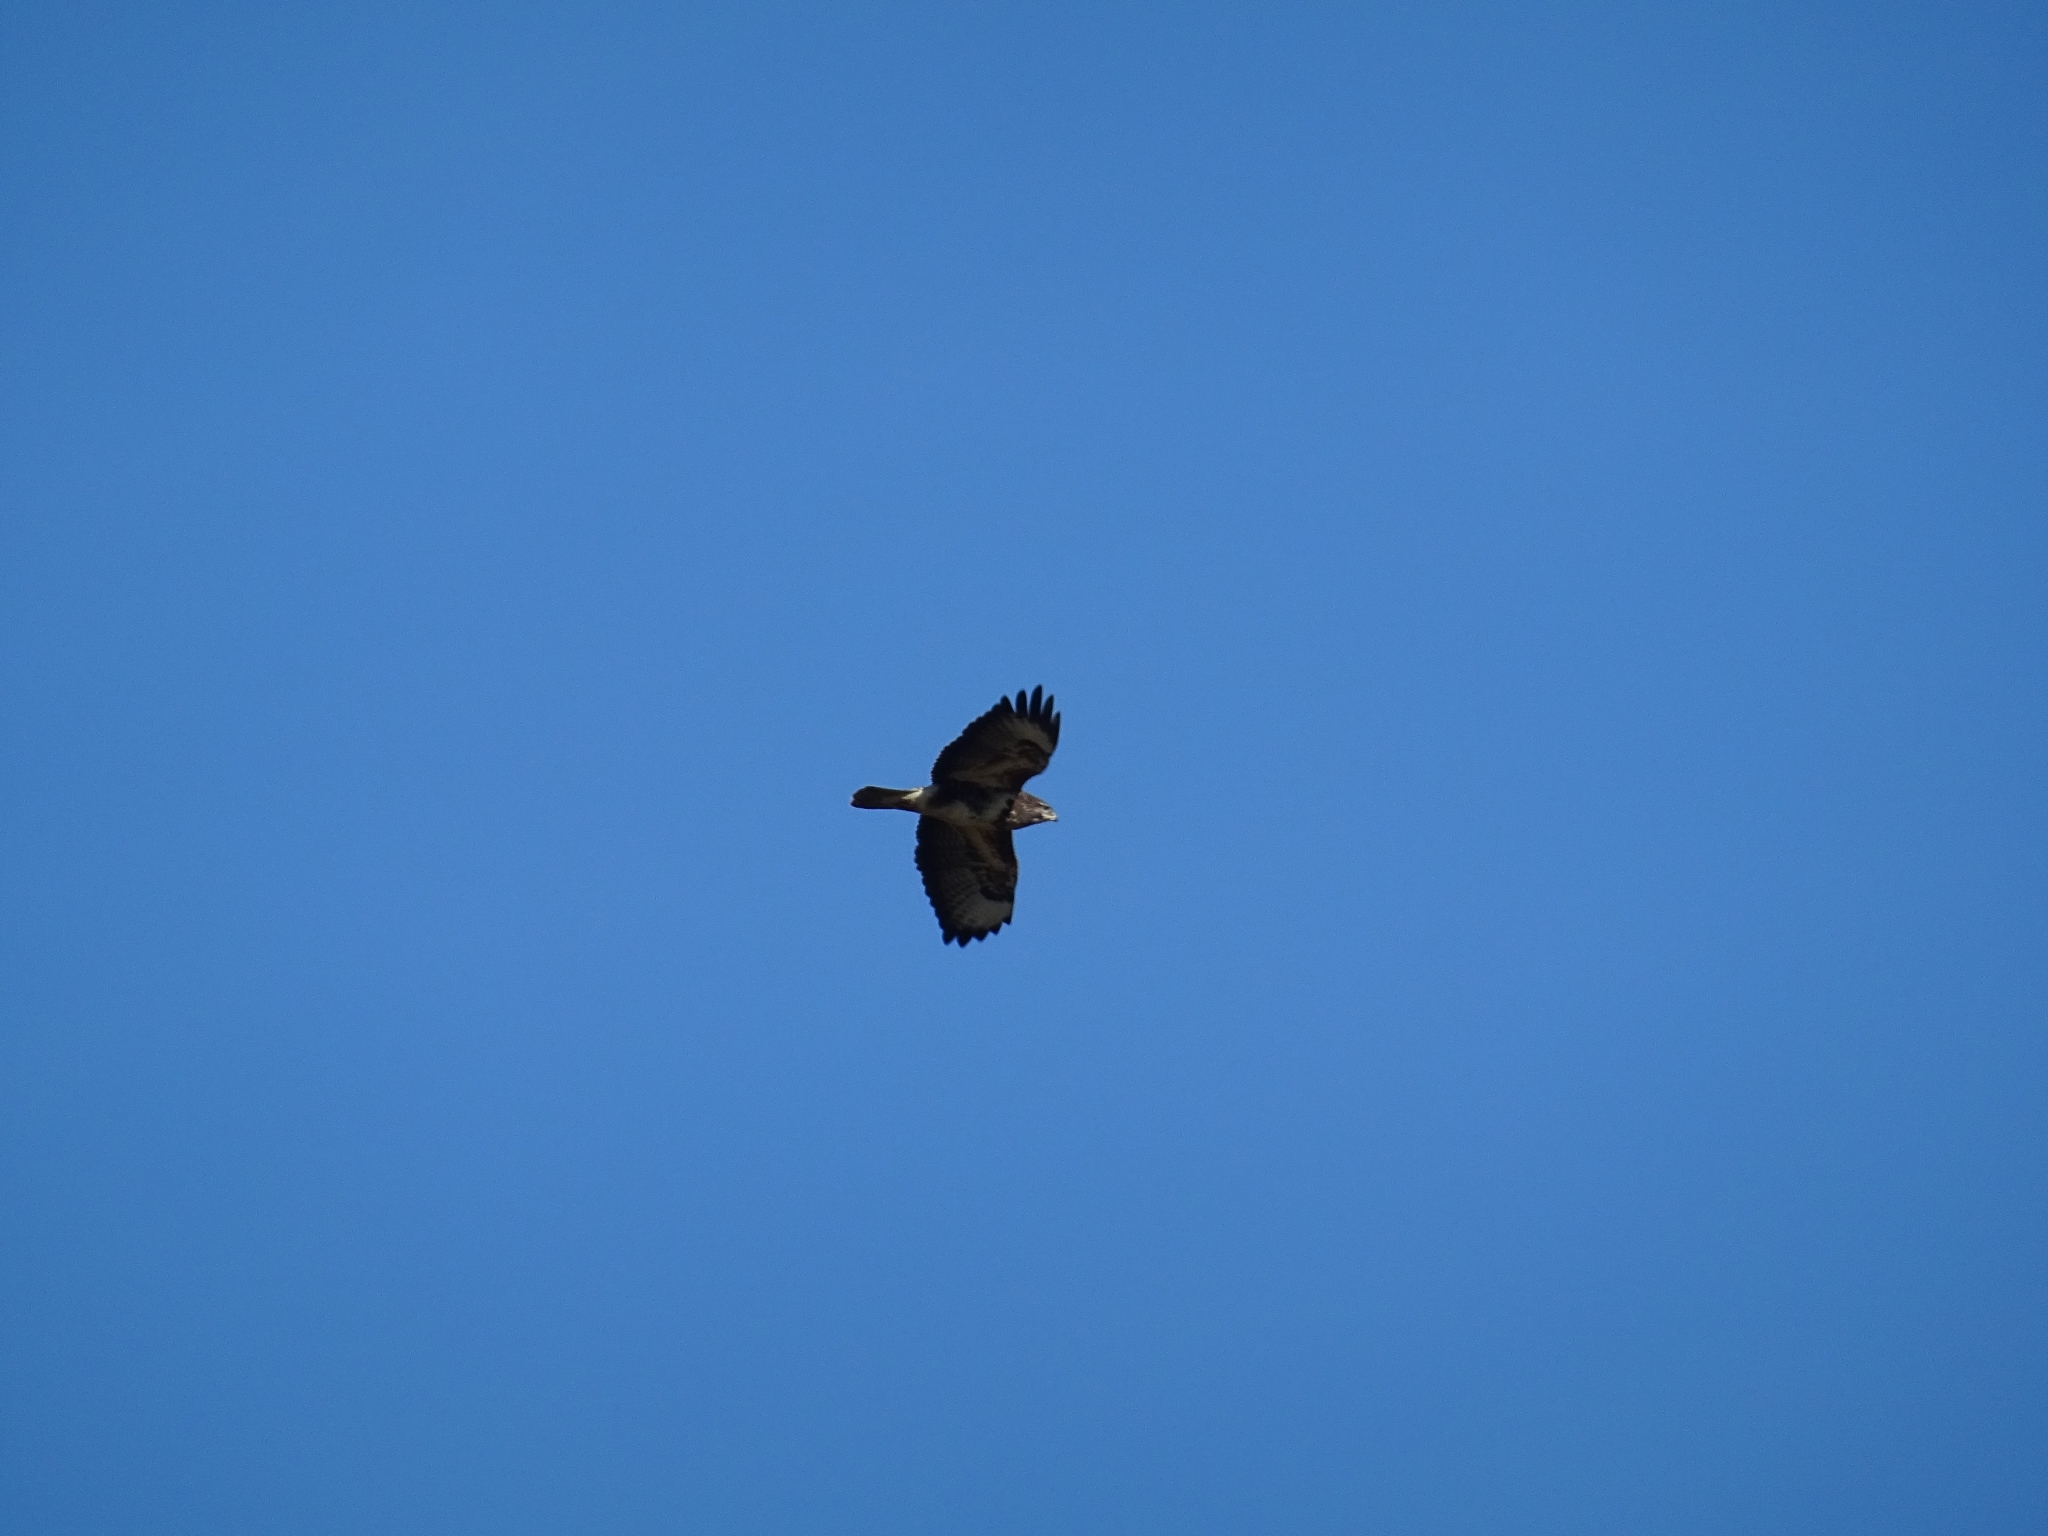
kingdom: Animalia
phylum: Chordata
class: Aves
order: Accipitriformes
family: Accipitridae
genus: Buteo
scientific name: Buteo buteo
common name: Common buzzard
